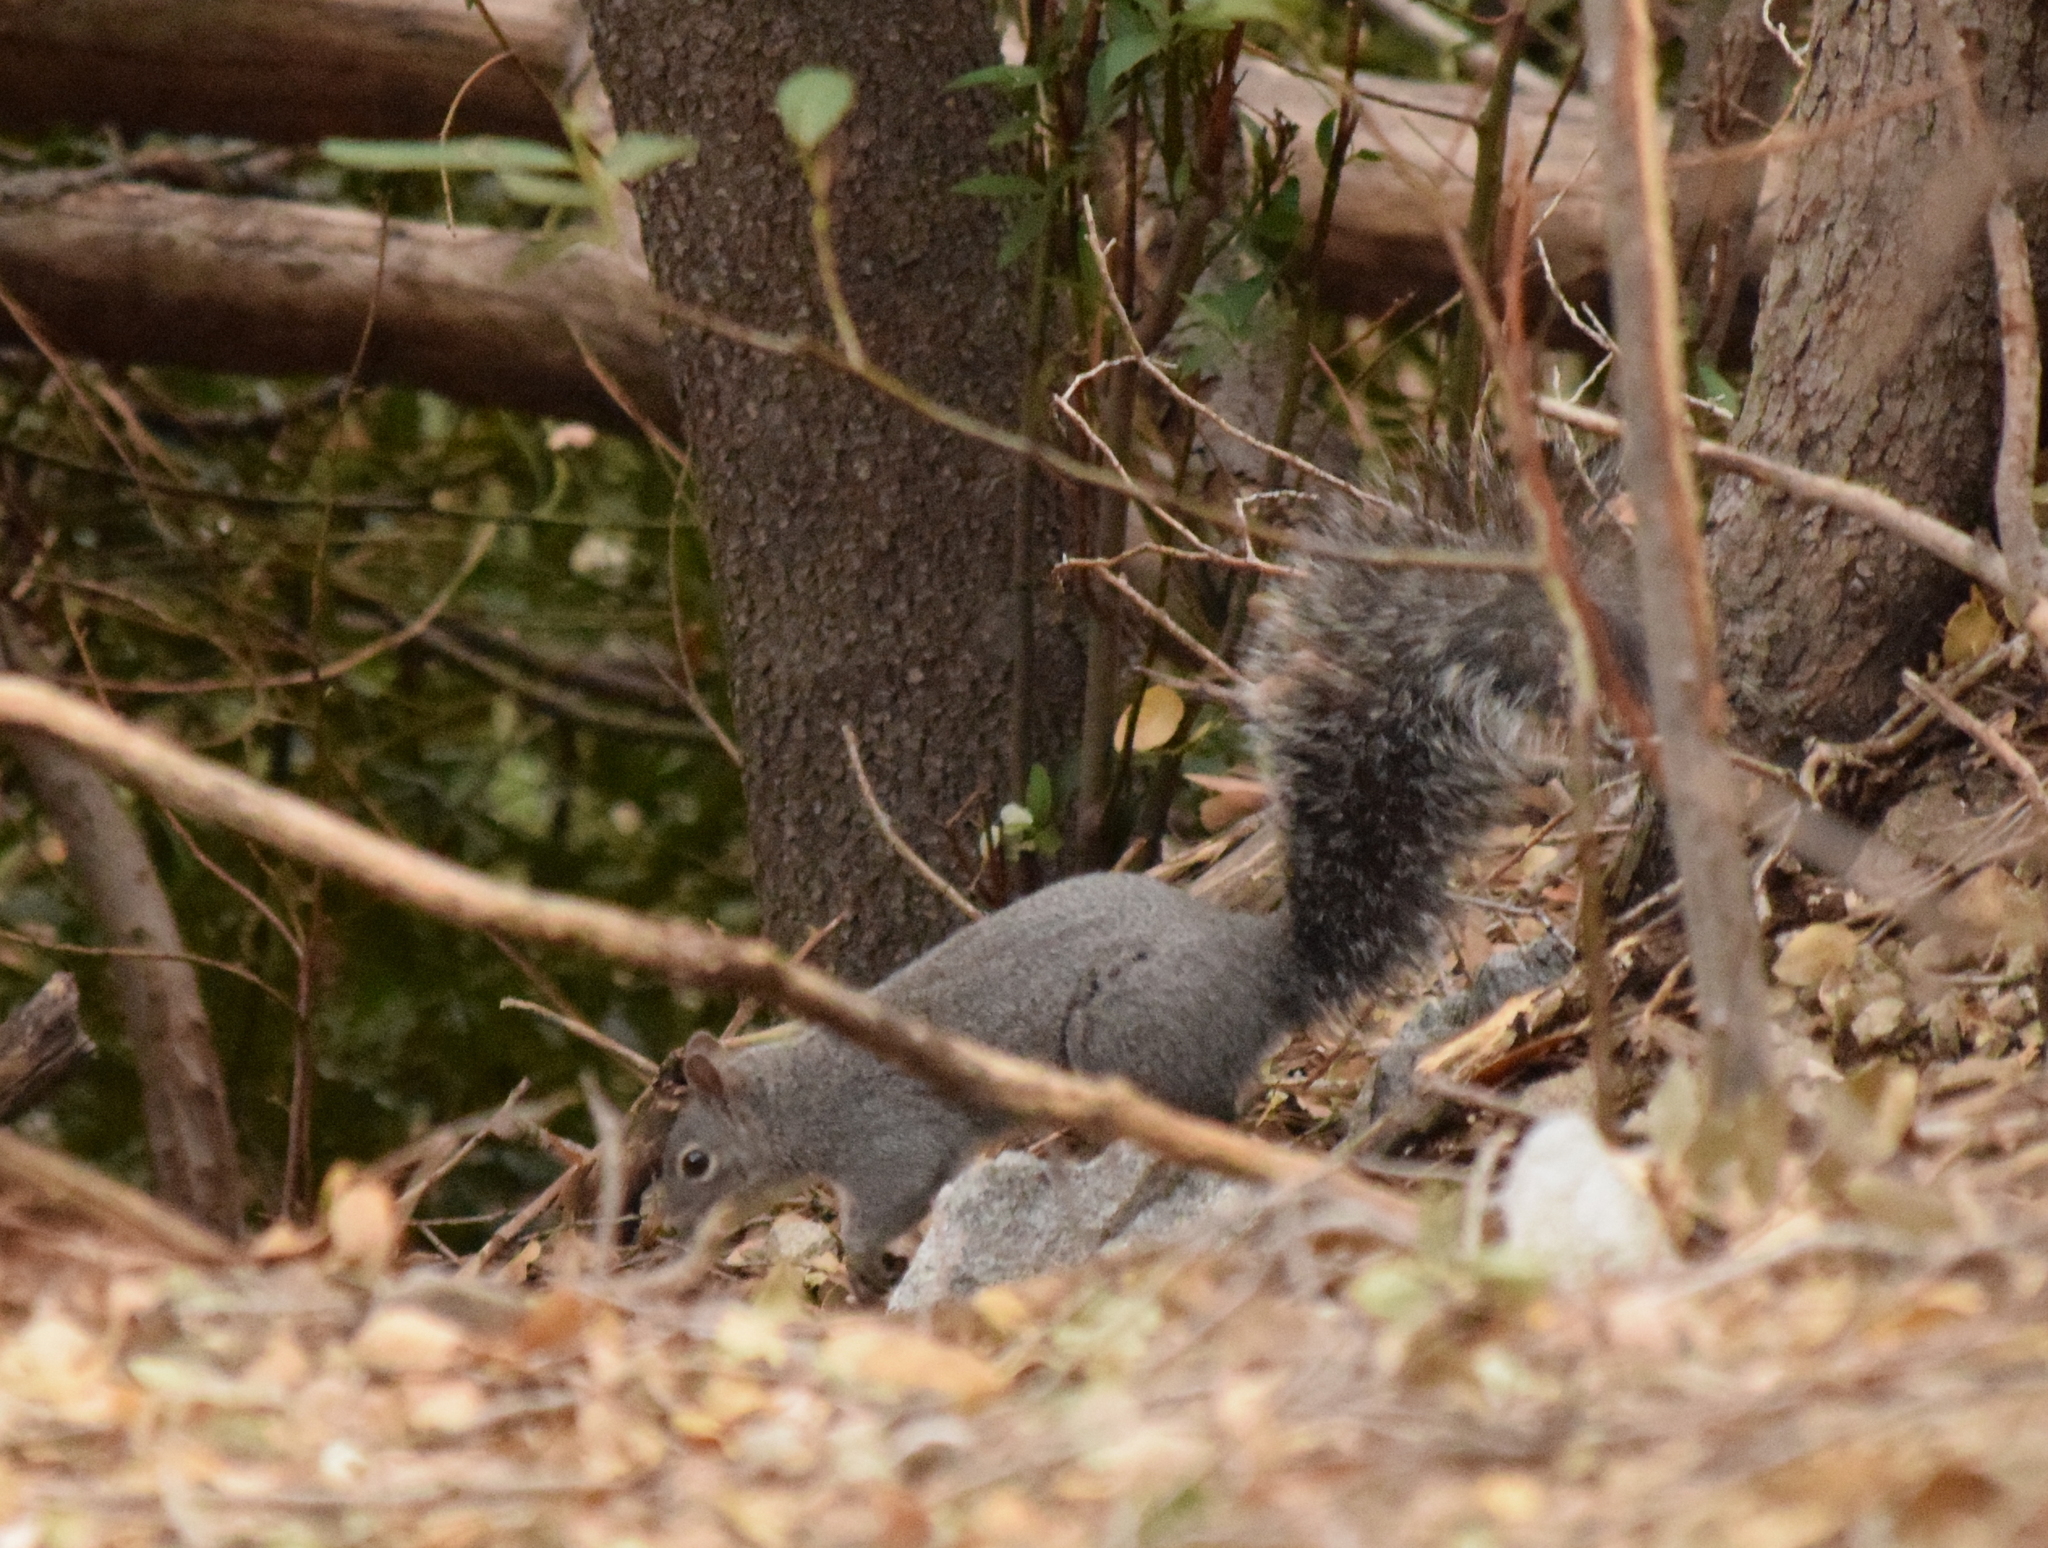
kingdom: Animalia
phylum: Chordata
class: Mammalia
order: Rodentia
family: Sciuridae
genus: Sciurus
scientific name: Sciurus griseus
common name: Western gray squirrel
